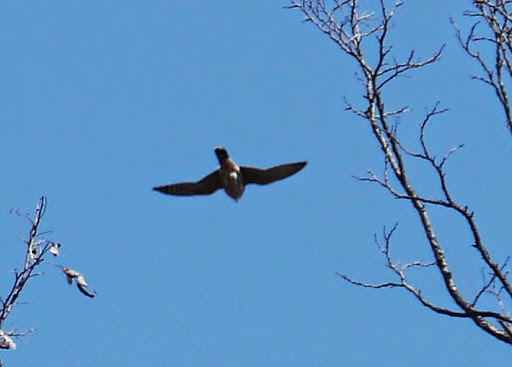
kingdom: Animalia
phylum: Chordata
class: Aves
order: Falconiformes
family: Falconidae
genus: Falco
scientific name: Falco columbarius
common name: Merlin
